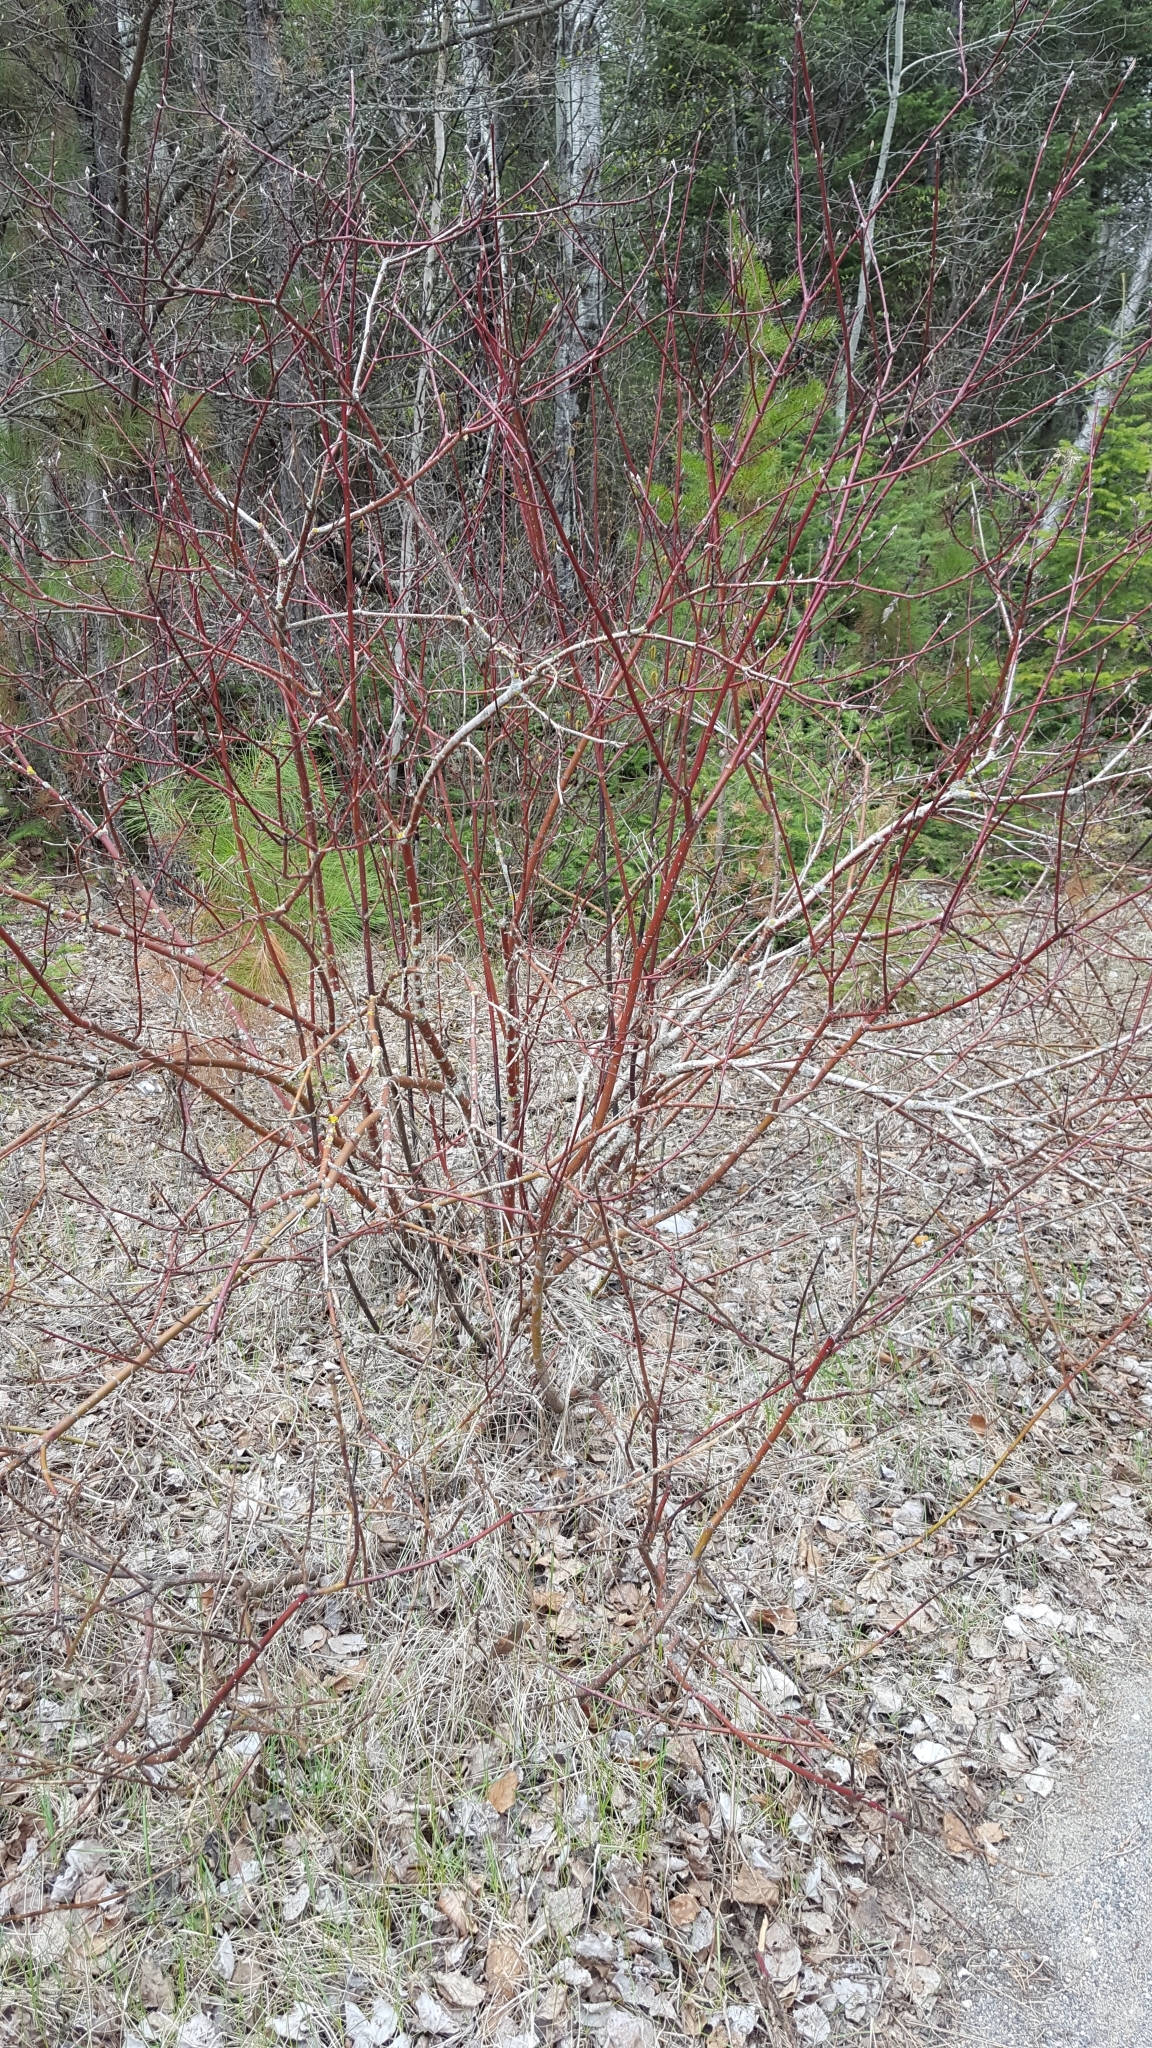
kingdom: Plantae
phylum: Tracheophyta
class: Magnoliopsida
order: Cornales
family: Cornaceae
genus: Cornus
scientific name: Cornus sericea
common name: Red-osier dogwood
